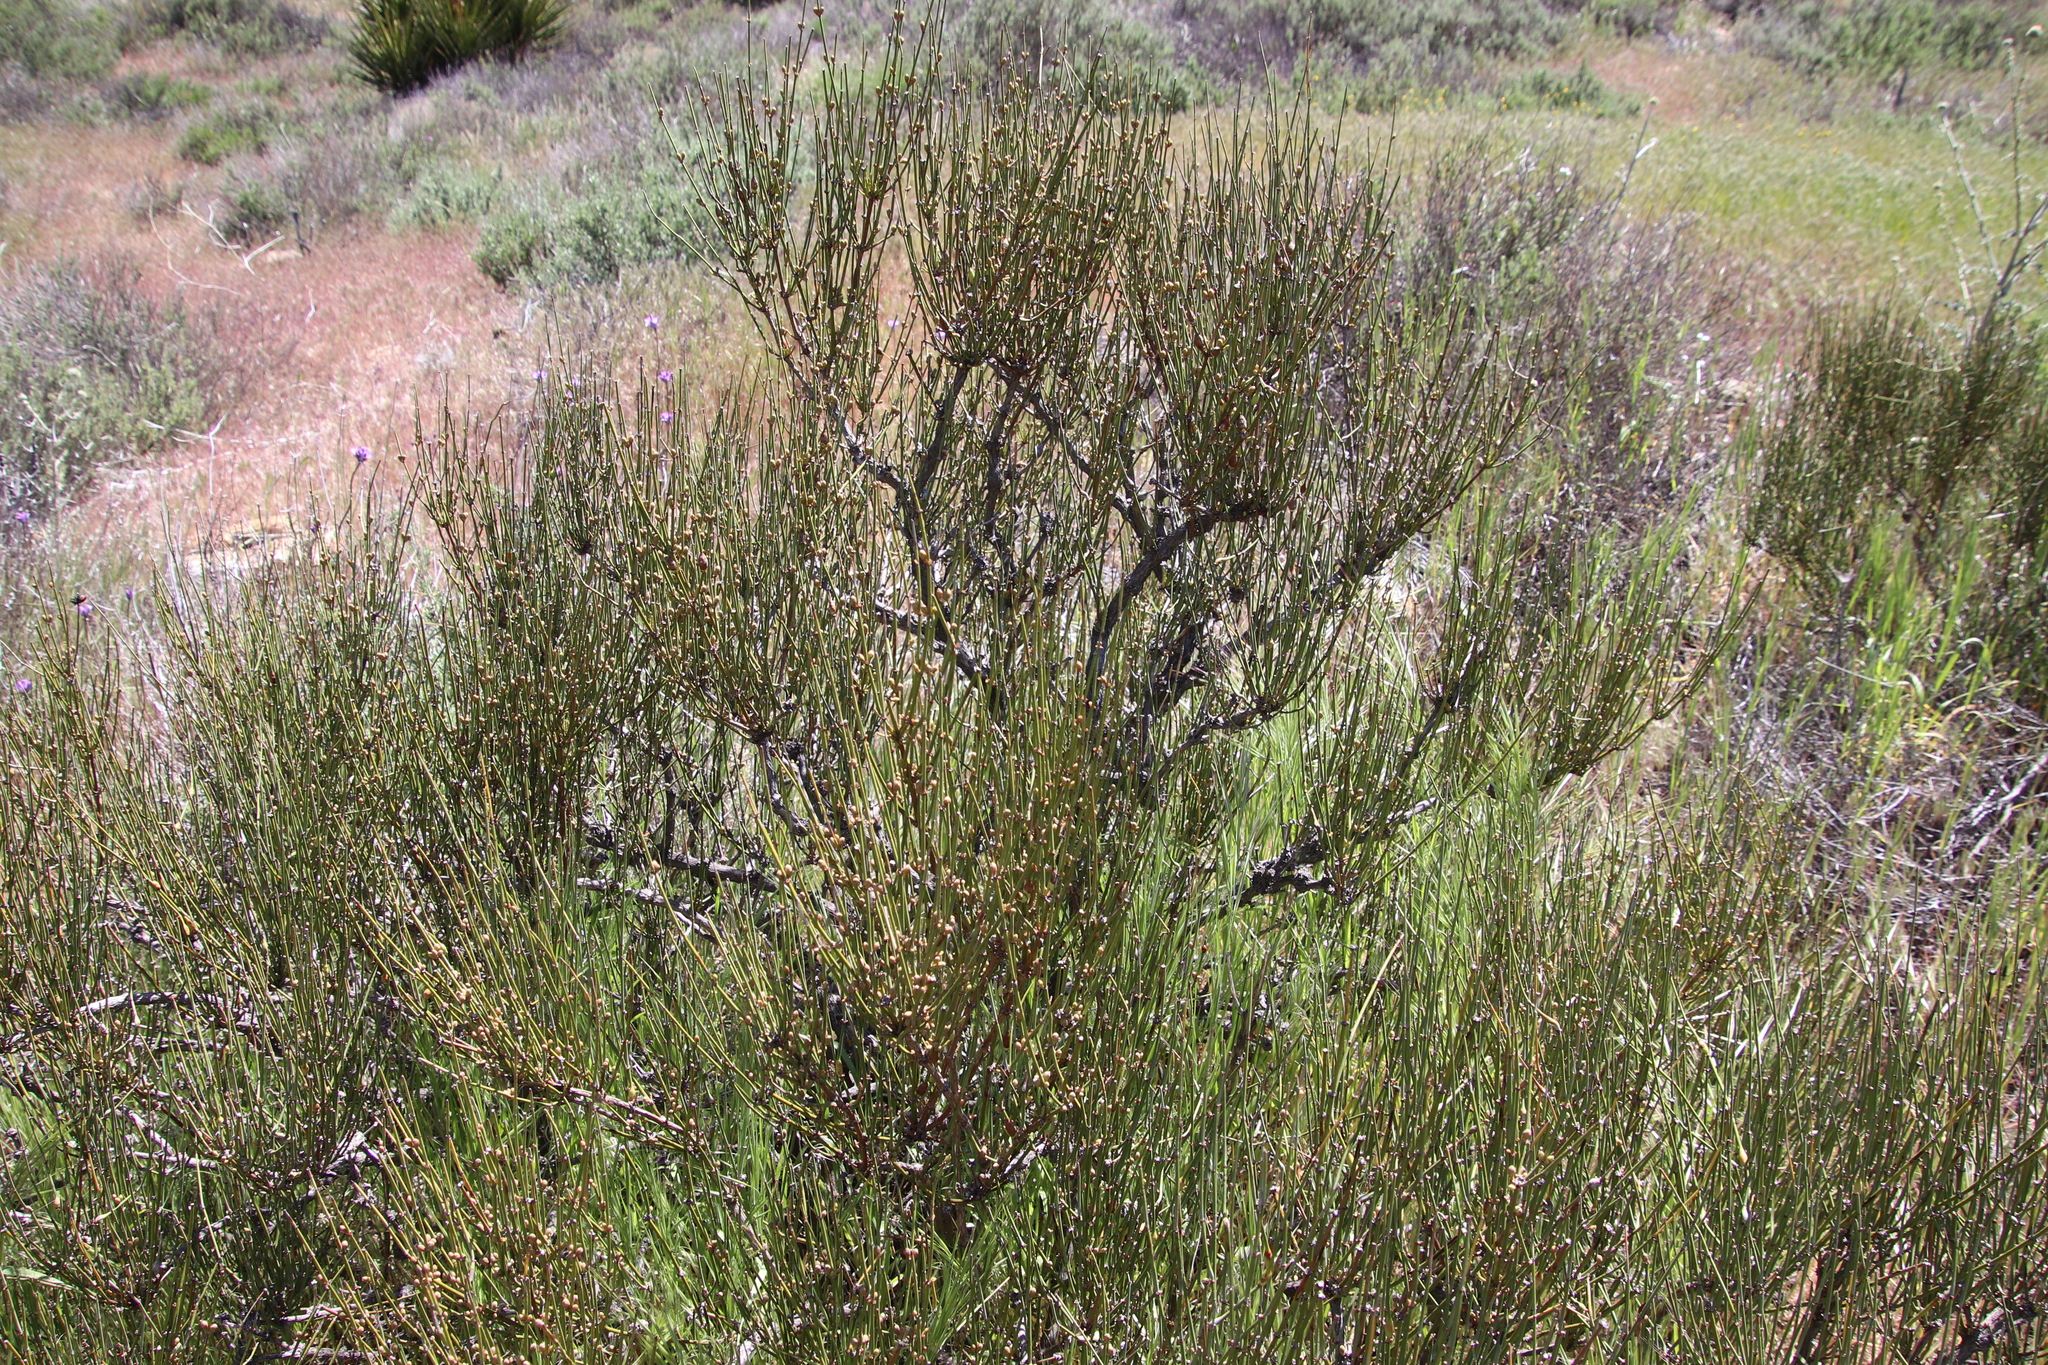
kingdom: Plantae
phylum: Tracheophyta
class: Gnetopsida
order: Ephedrales
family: Ephedraceae
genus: Ephedra
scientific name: Ephedra californica
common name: California ephedra
